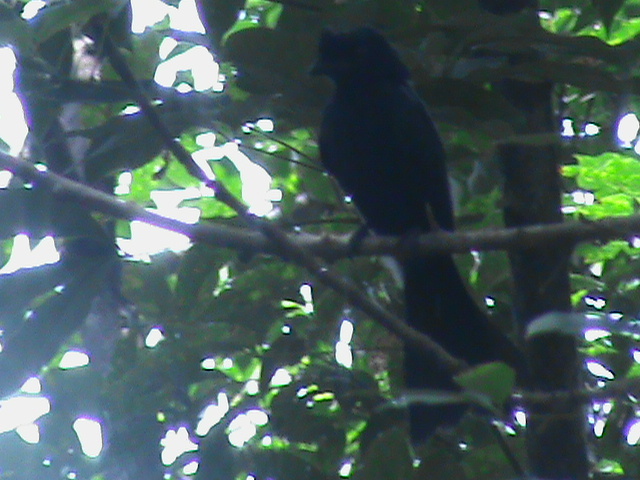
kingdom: Animalia
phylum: Chordata
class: Aves
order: Passeriformes
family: Dicruridae
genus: Dicrurus
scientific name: Dicrurus paradiseus
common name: Greater racket-tailed drongo
